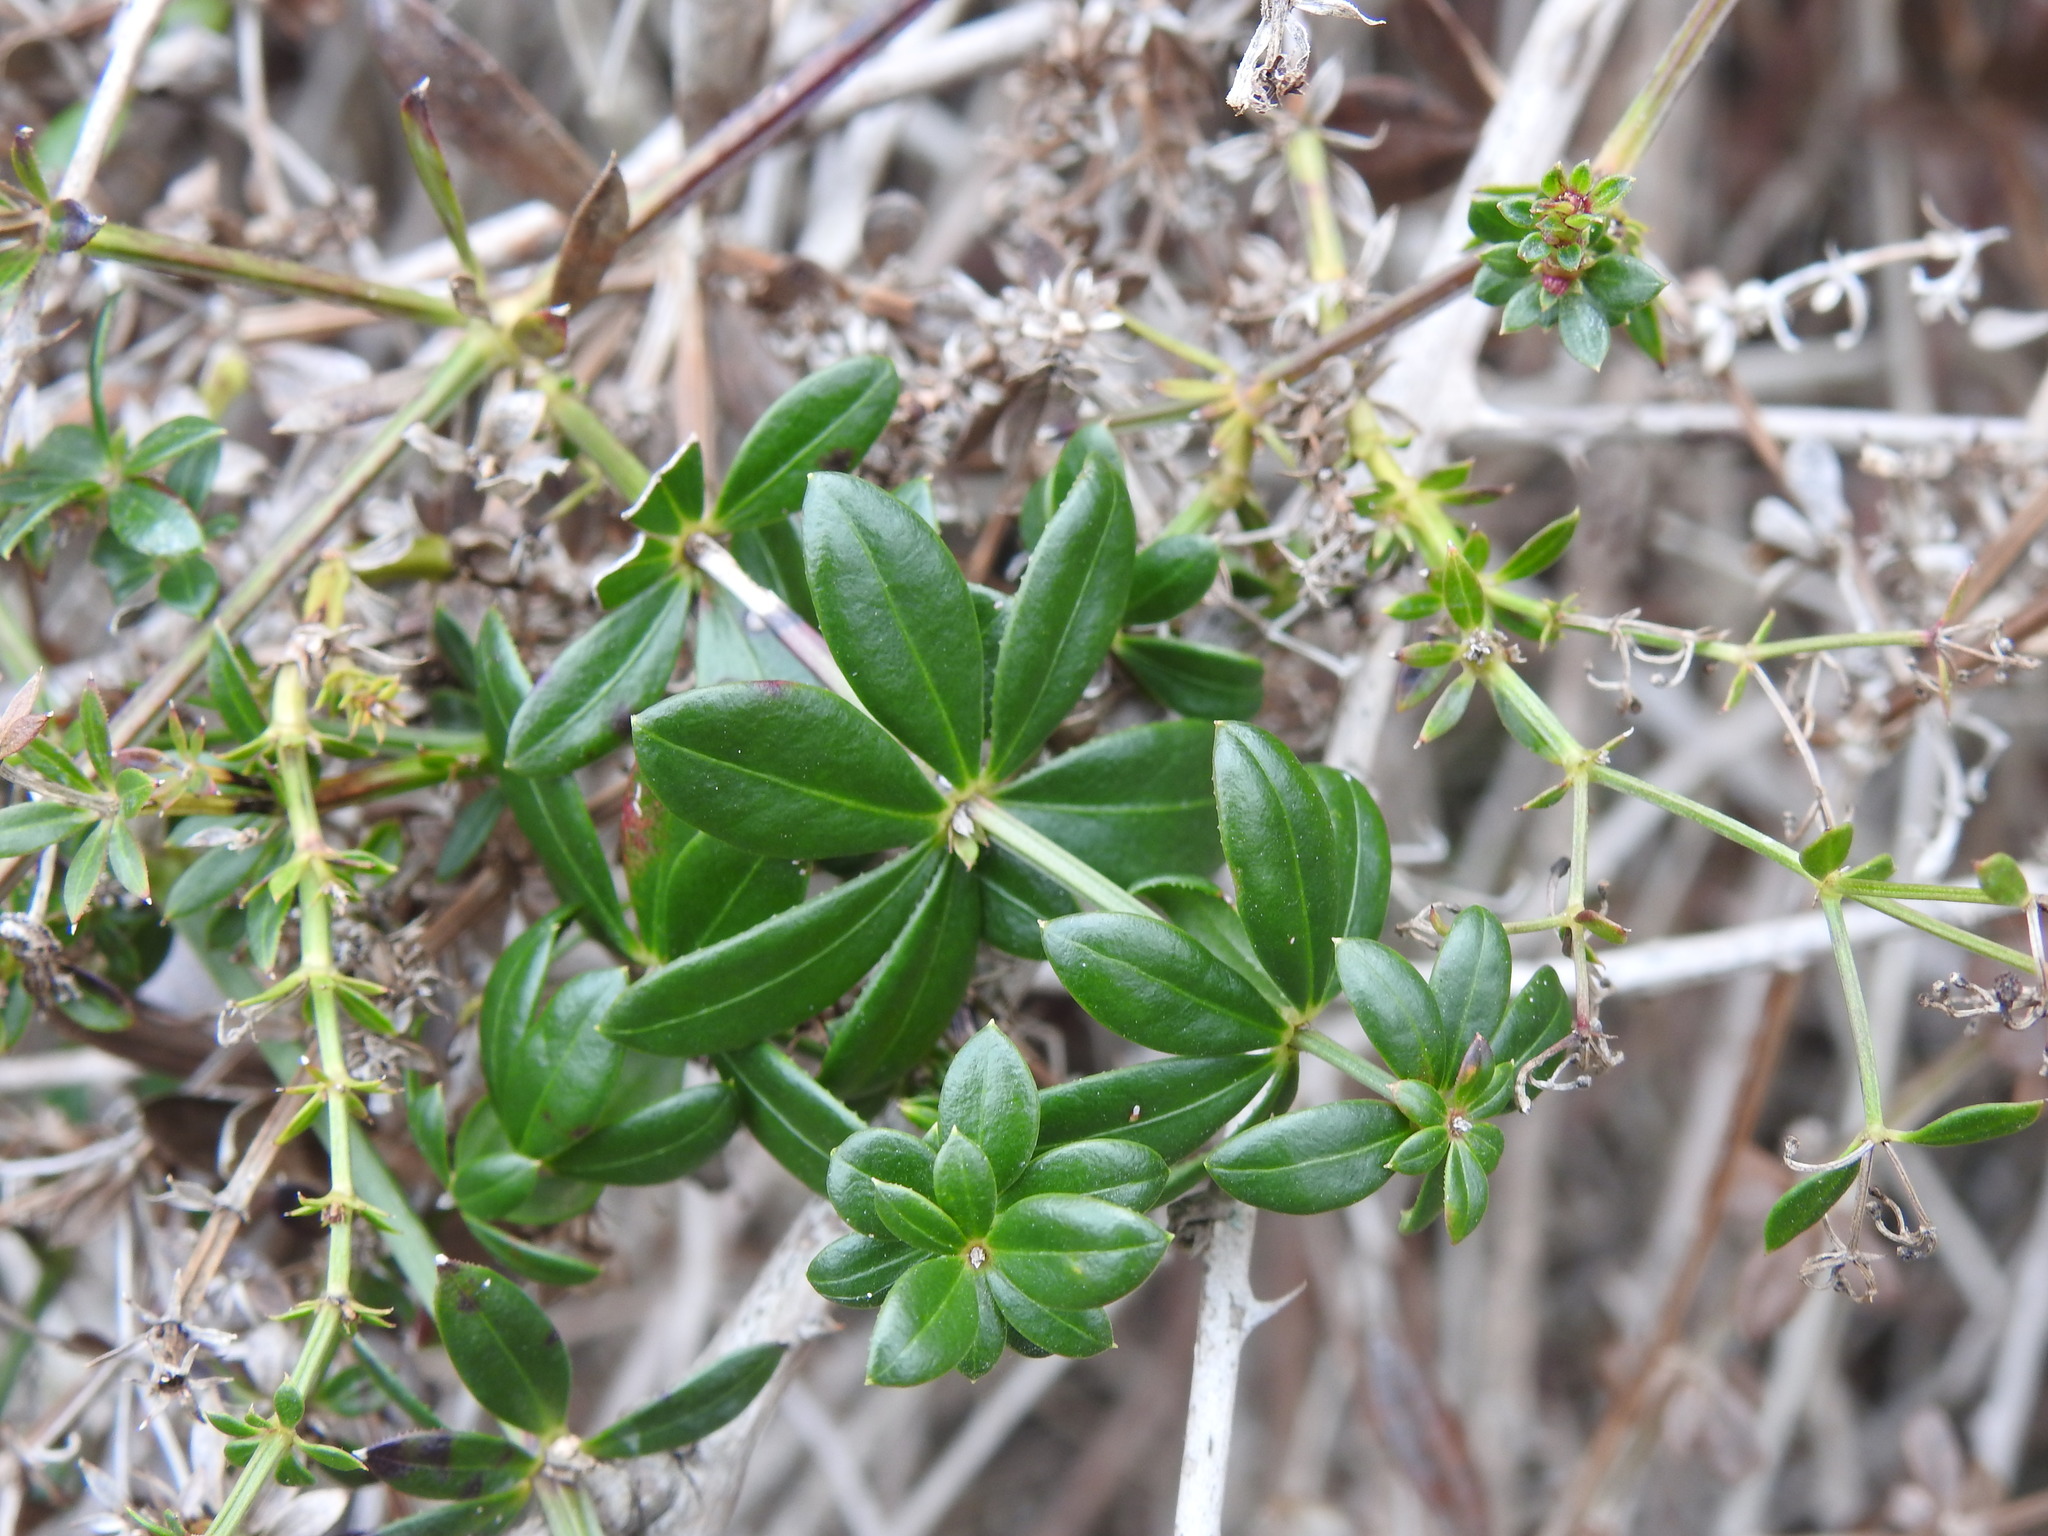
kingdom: Plantae
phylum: Tracheophyta
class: Magnoliopsida
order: Gentianales
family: Rubiaceae
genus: Rubia
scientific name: Rubia peregrina
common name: Wild madder
